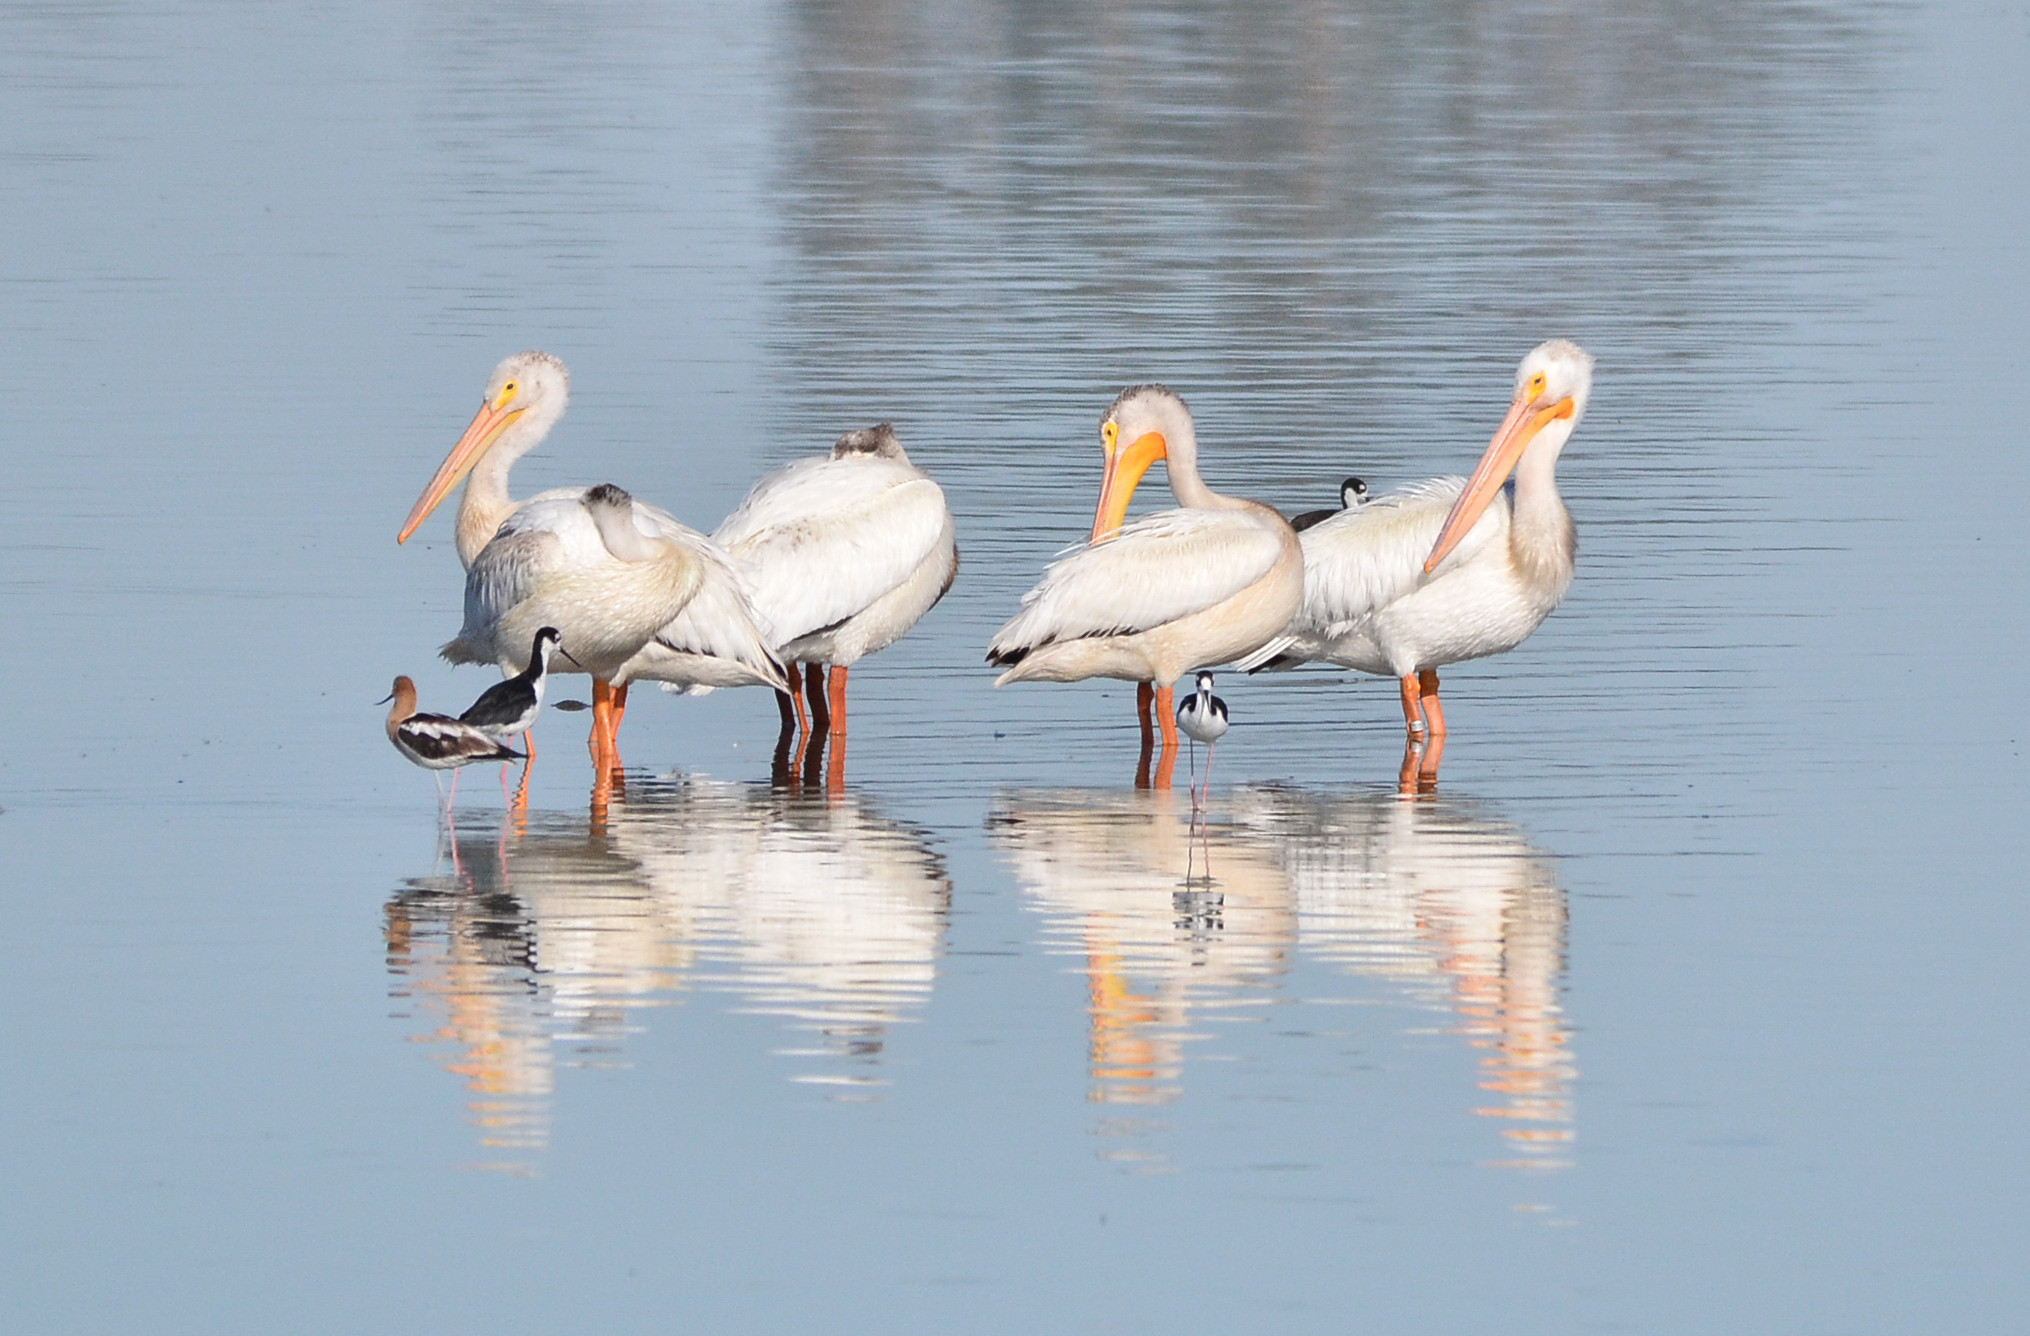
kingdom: Animalia
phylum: Chordata
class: Aves
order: Pelecaniformes
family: Pelecanidae
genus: Pelecanus
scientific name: Pelecanus erythrorhynchos
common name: American white pelican
